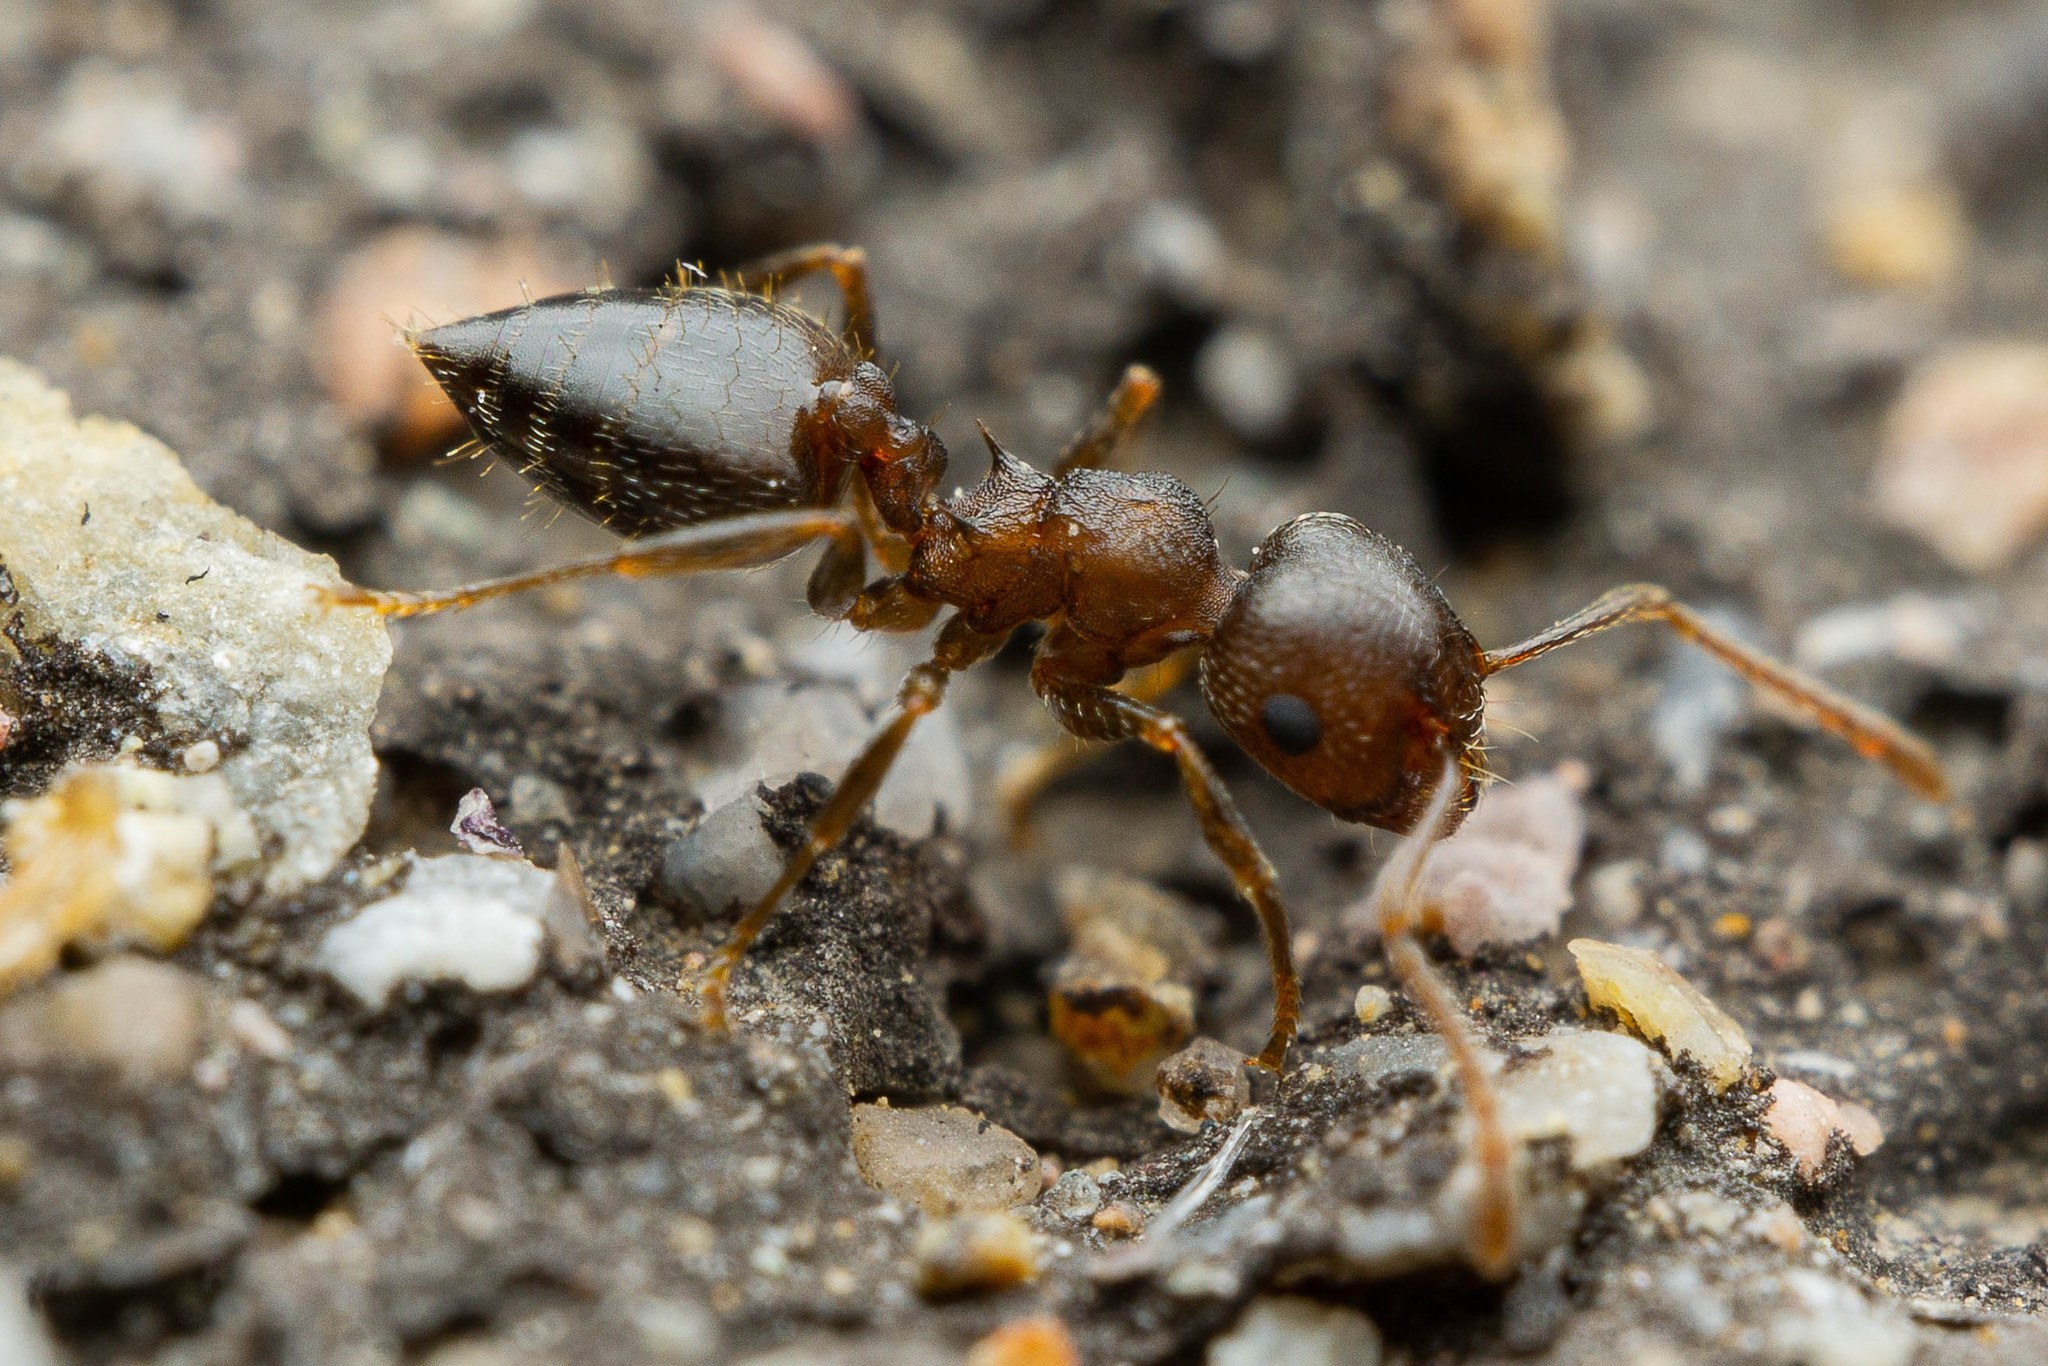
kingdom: Animalia
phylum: Arthropoda
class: Insecta
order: Hymenoptera
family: Formicidae
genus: Crematogaster
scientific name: Crematogaster dentinodis
